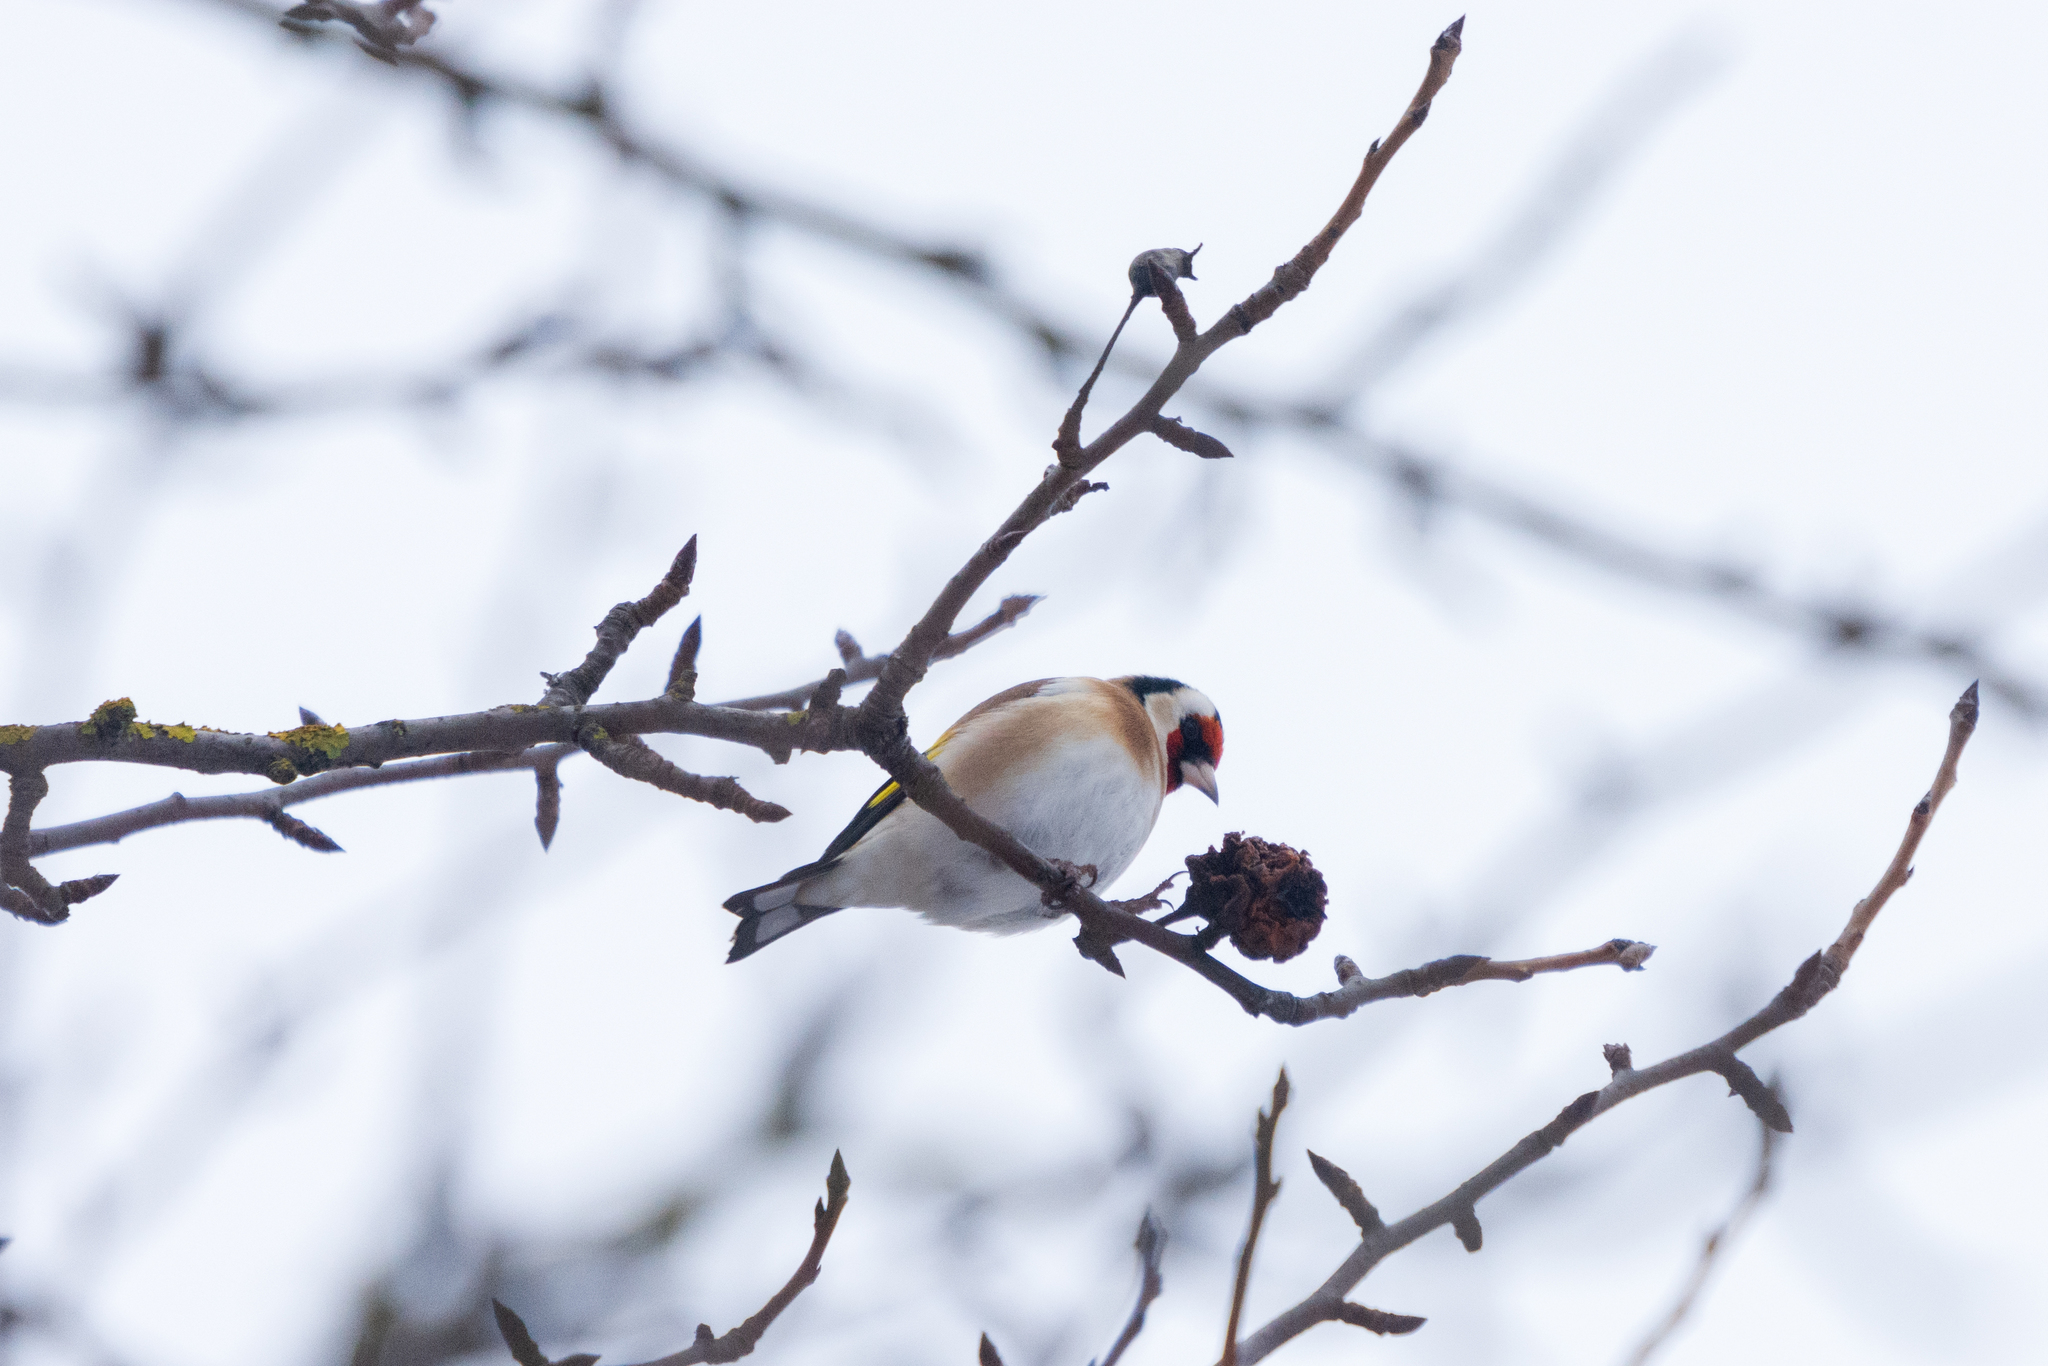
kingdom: Animalia
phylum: Chordata
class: Aves
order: Passeriformes
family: Fringillidae
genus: Carduelis
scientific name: Carduelis carduelis
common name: European goldfinch
